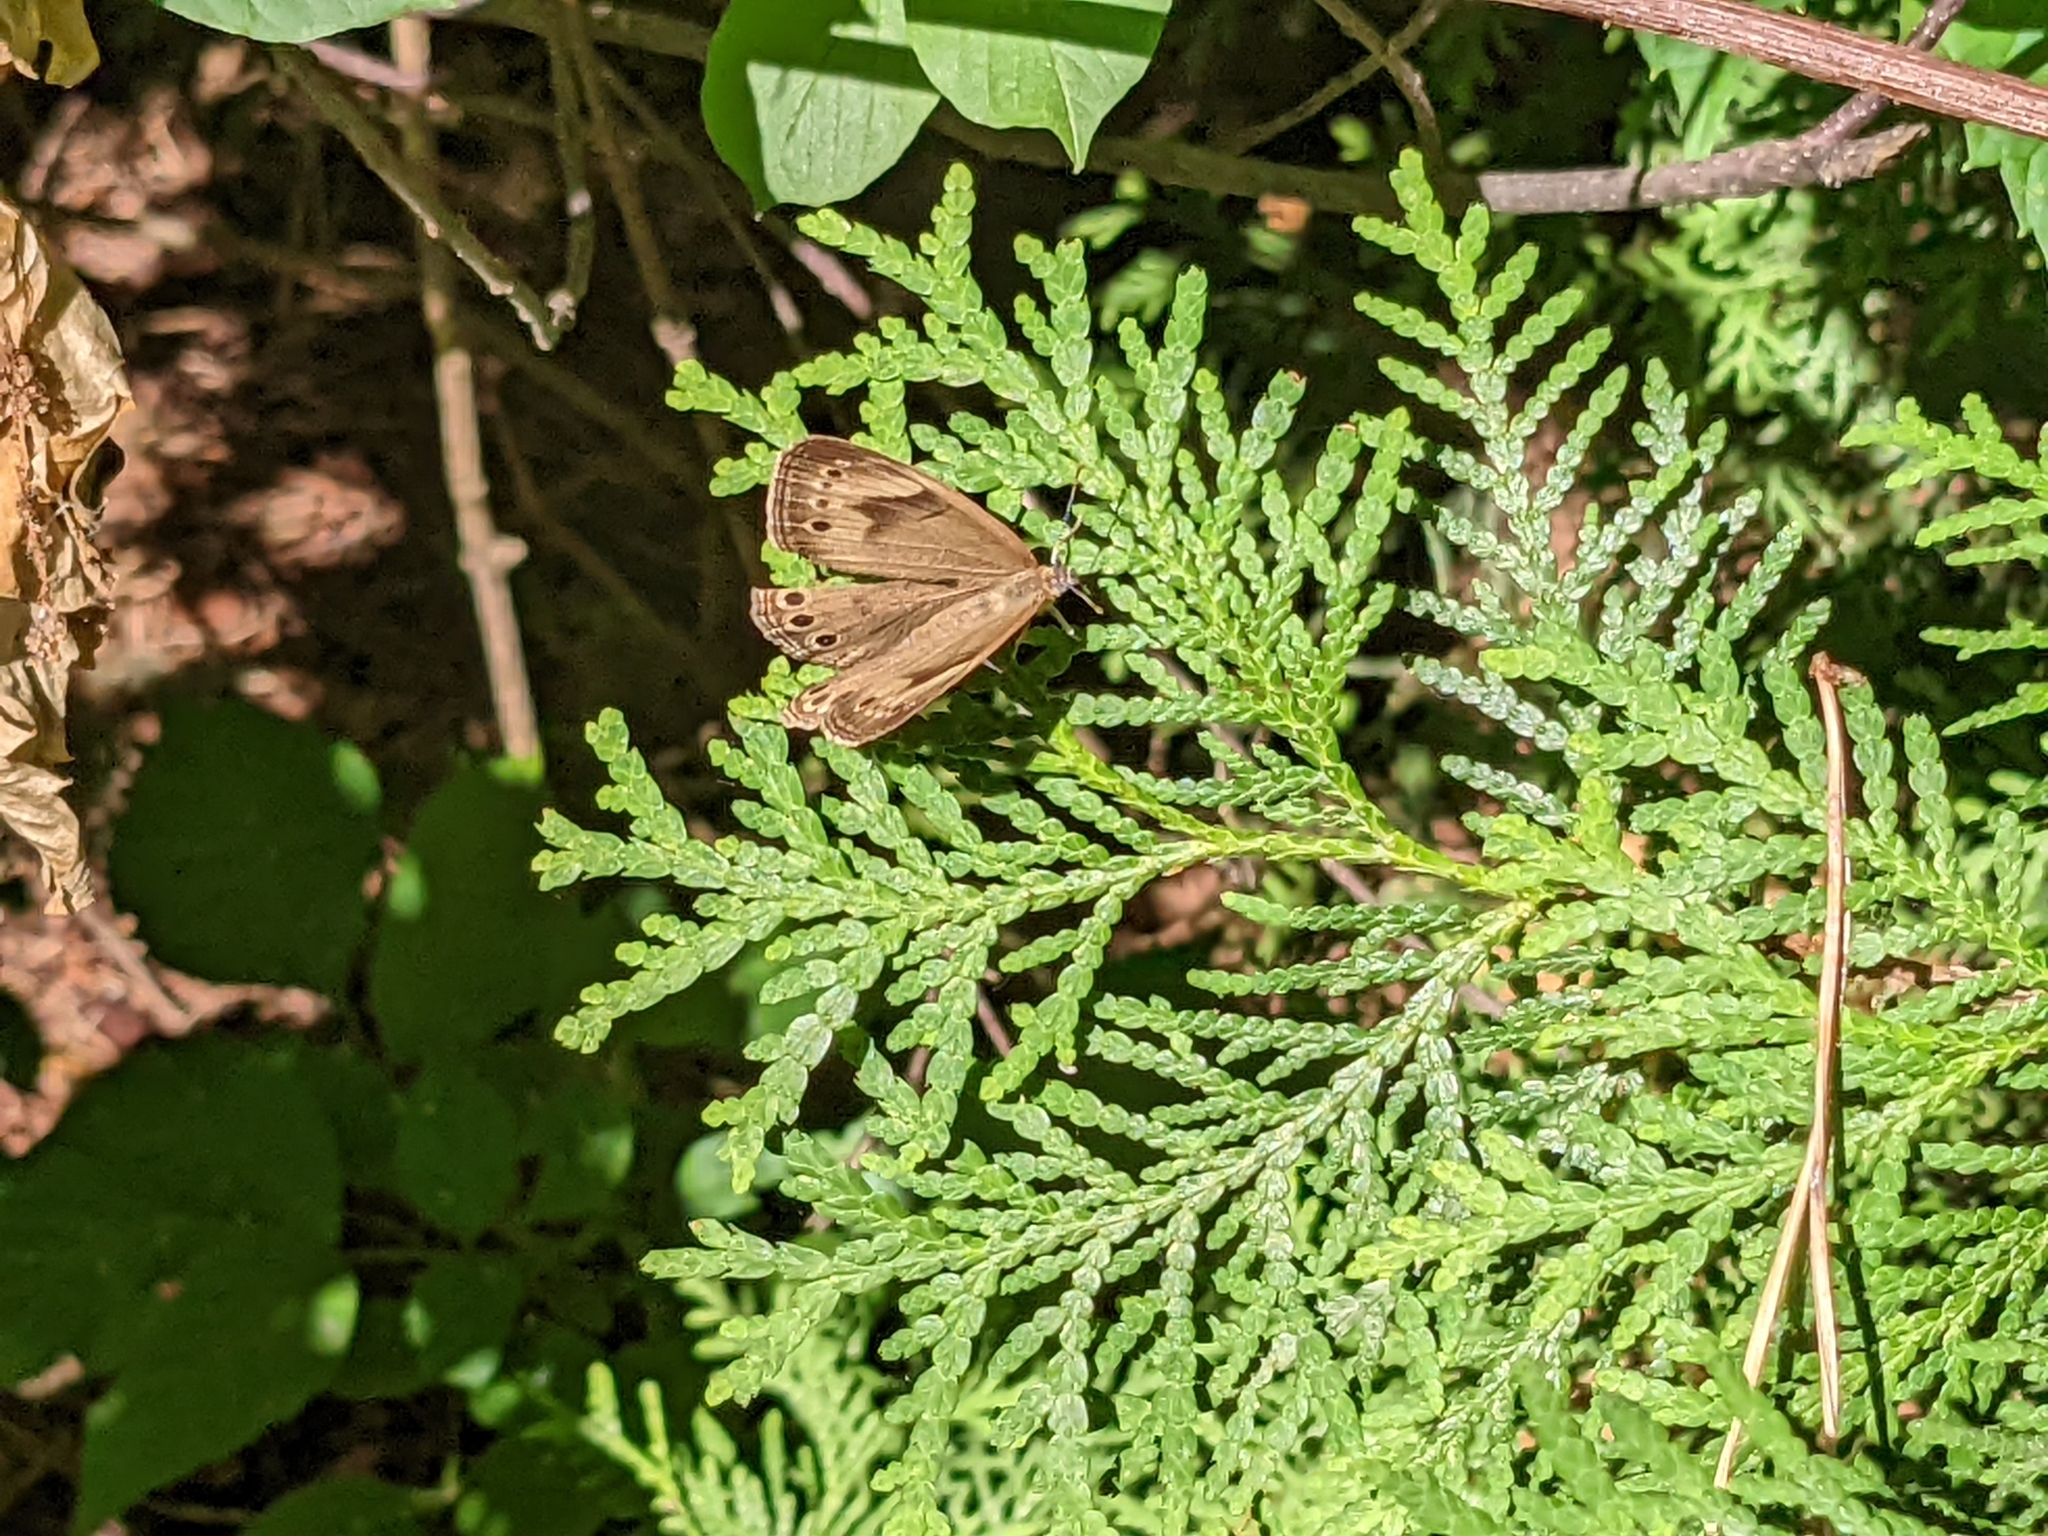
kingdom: Animalia
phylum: Arthropoda
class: Insecta
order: Lepidoptera
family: Nymphalidae
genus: Lethe
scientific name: Lethe eurydice
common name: Eyed brown
